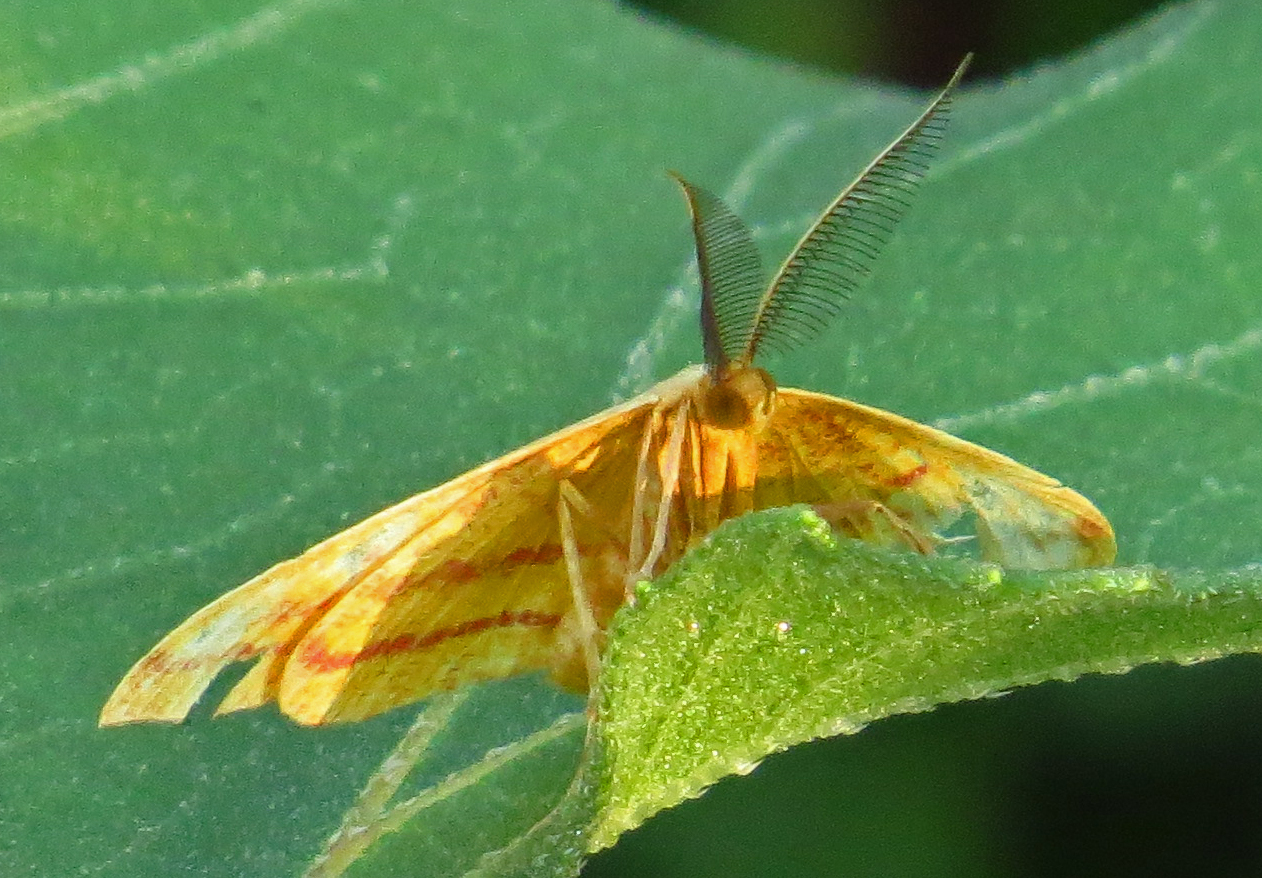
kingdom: Animalia
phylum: Arthropoda
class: Insecta
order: Lepidoptera
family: Geometridae
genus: Haematopis
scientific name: Haematopis grataria
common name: Chickweed geometer
